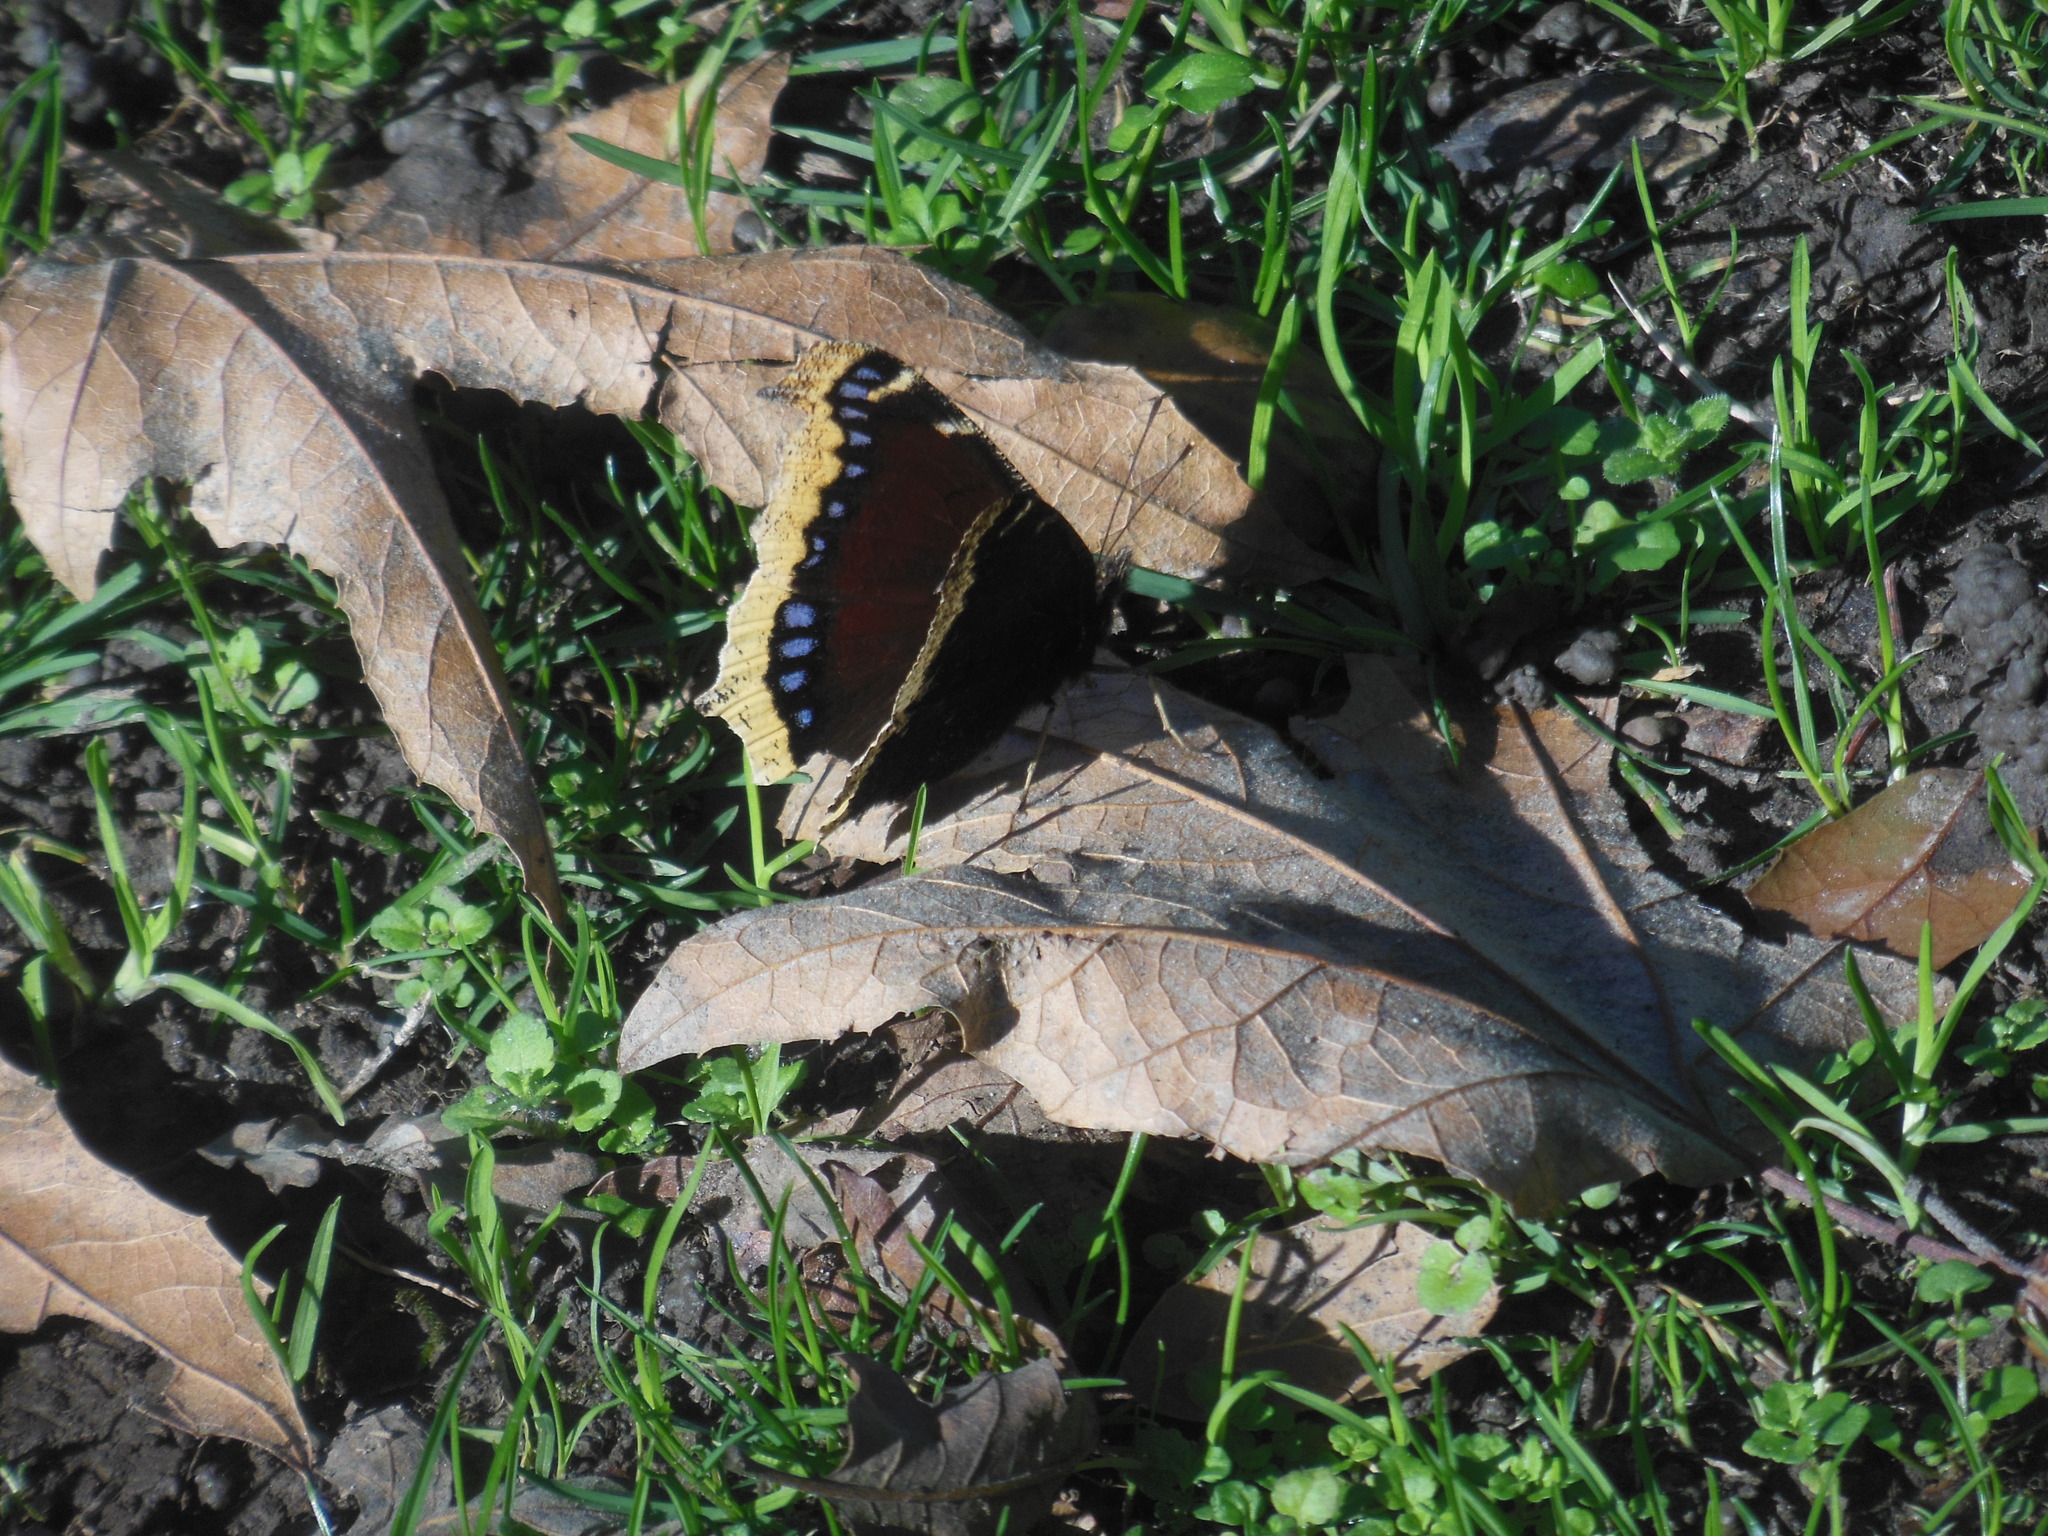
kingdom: Animalia
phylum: Arthropoda
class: Insecta
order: Lepidoptera
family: Nymphalidae
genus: Nymphalis
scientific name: Nymphalis antiopa
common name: Camberwell beauty
